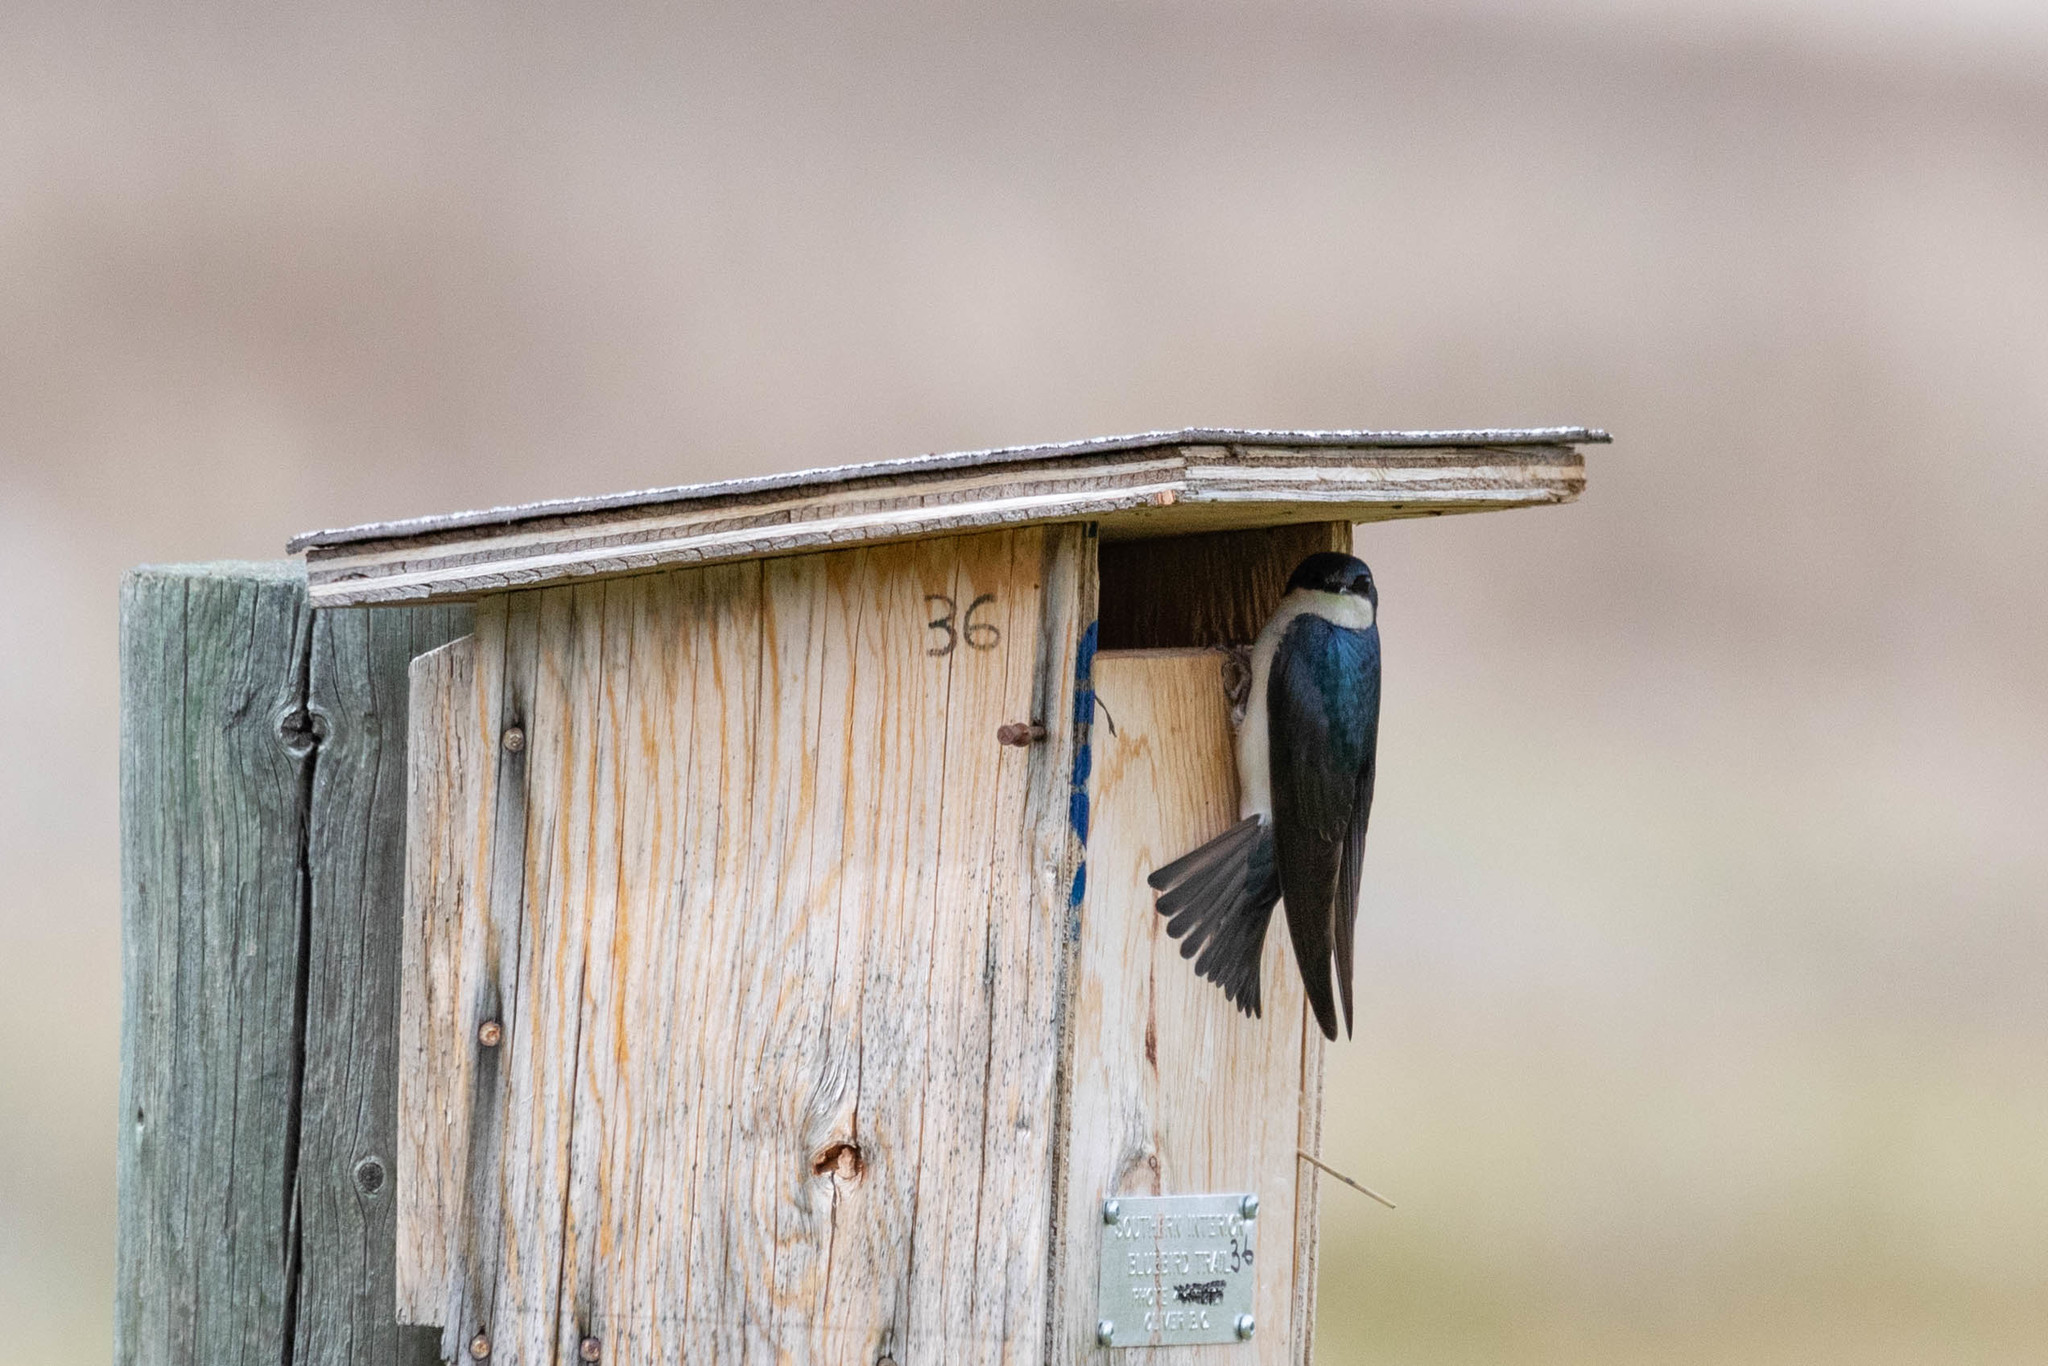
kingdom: Animalia
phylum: Chordata
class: Aves
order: Passeriformes
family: Hirundinidae
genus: Tachycineta
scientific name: Tachycineta bicolor
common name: Tree swallow
